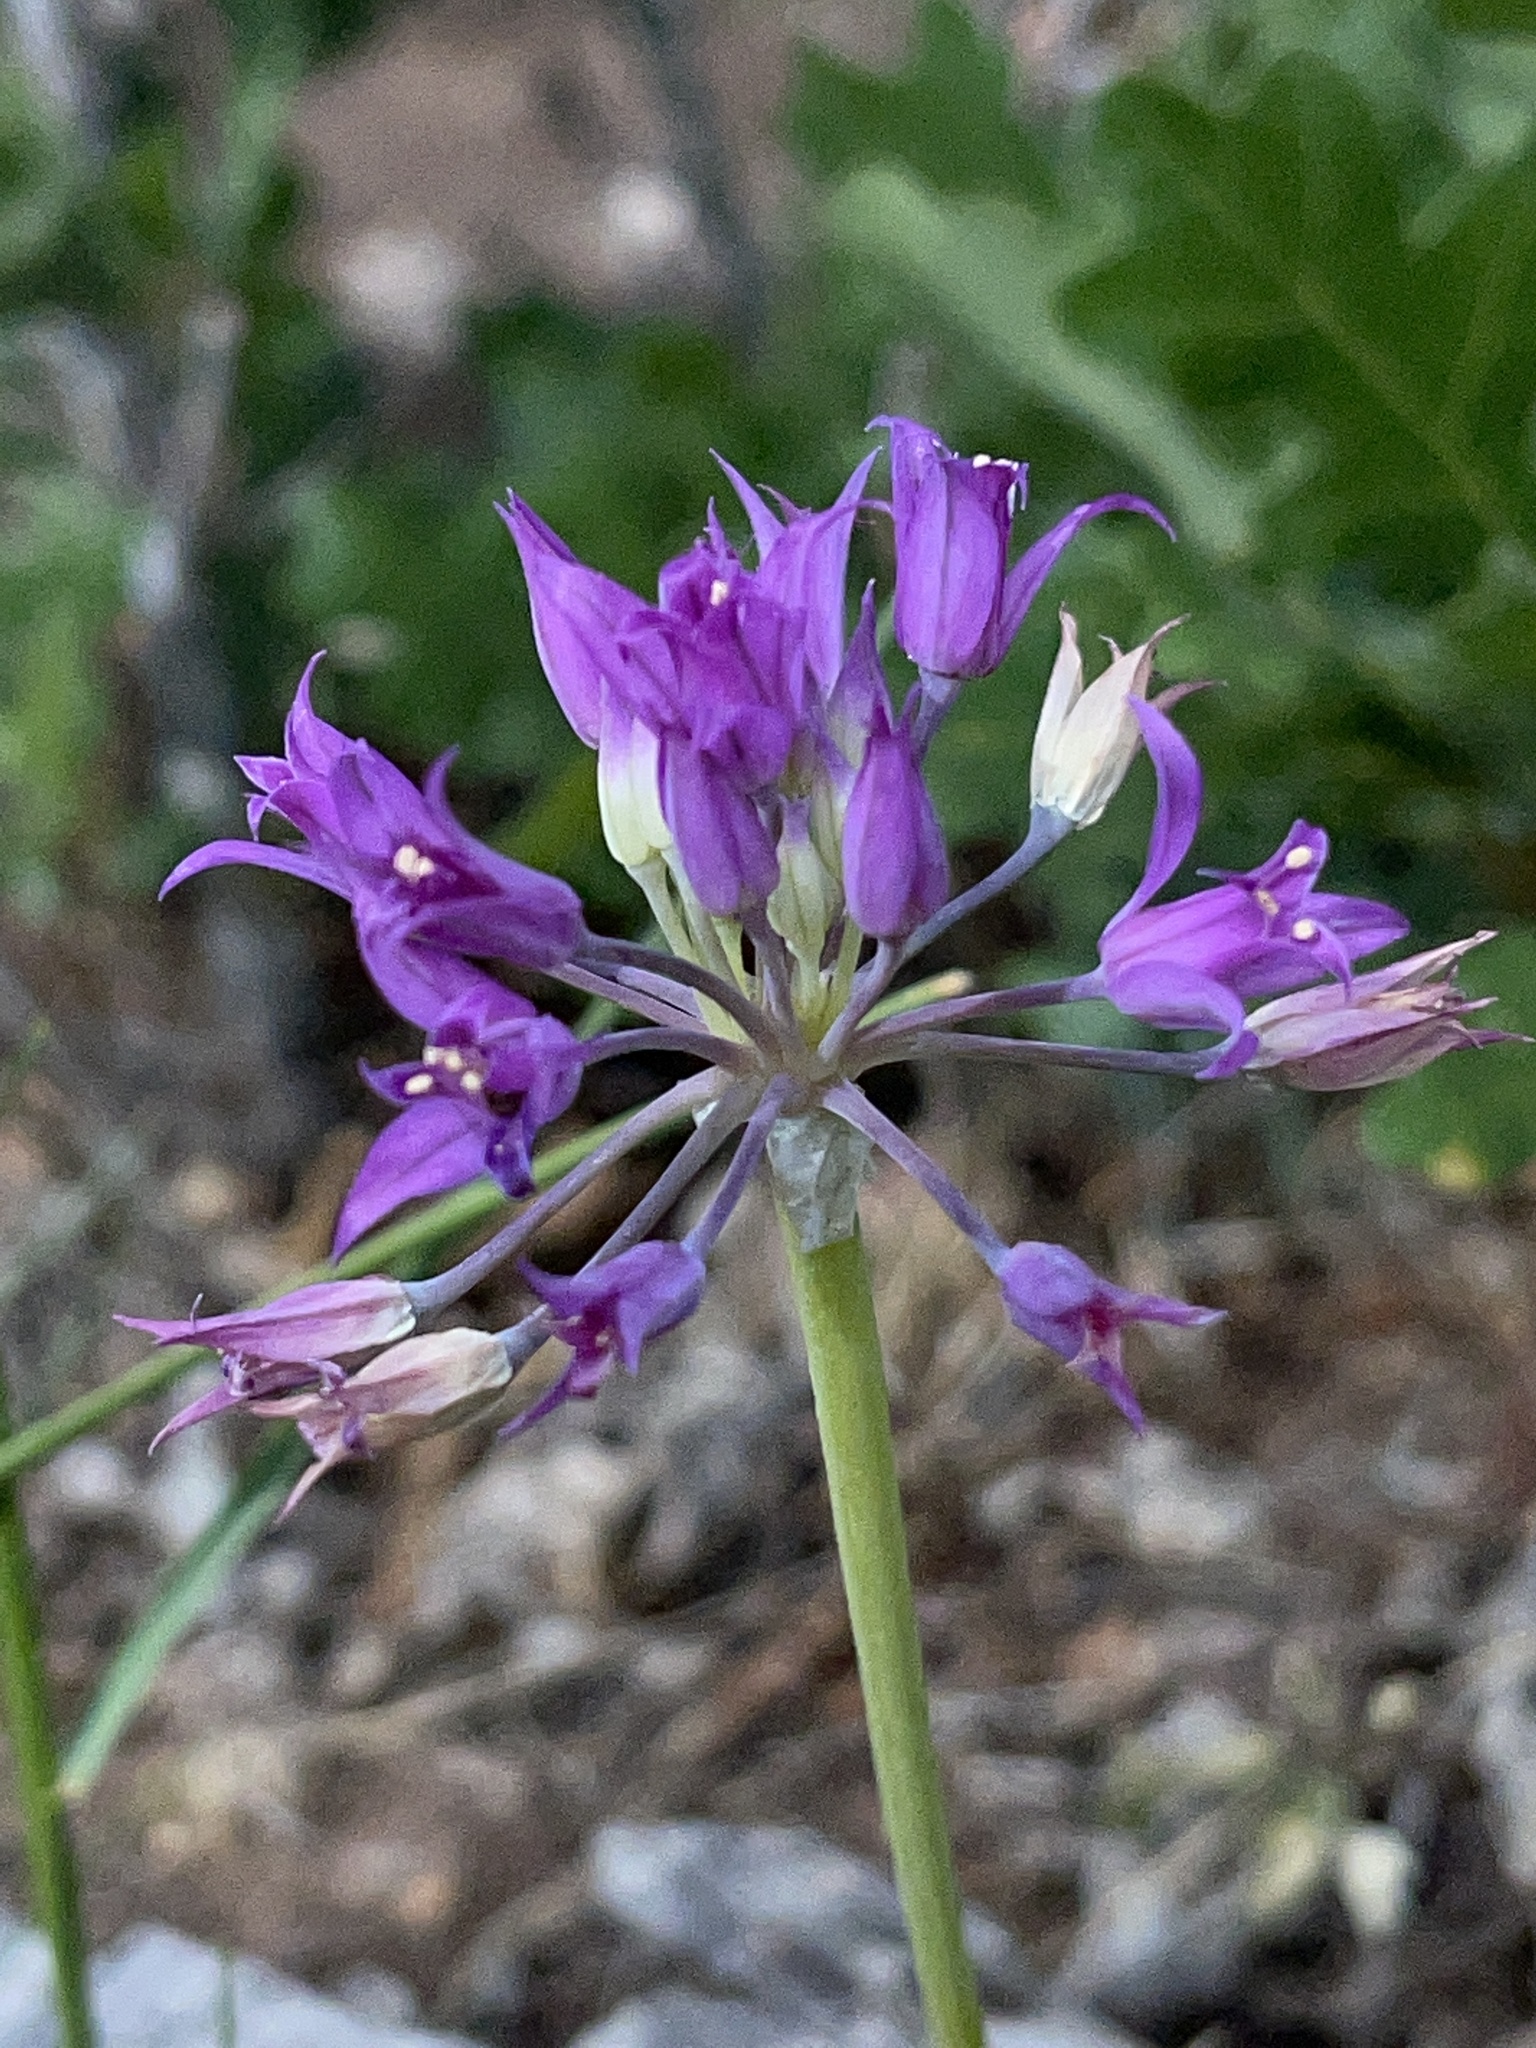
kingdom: Plantae
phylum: Tracheophyta
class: Liliopsida
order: Asparagales
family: Amaryllidaceae
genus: Allium
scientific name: Allium acuminatum
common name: Hooker's onion
